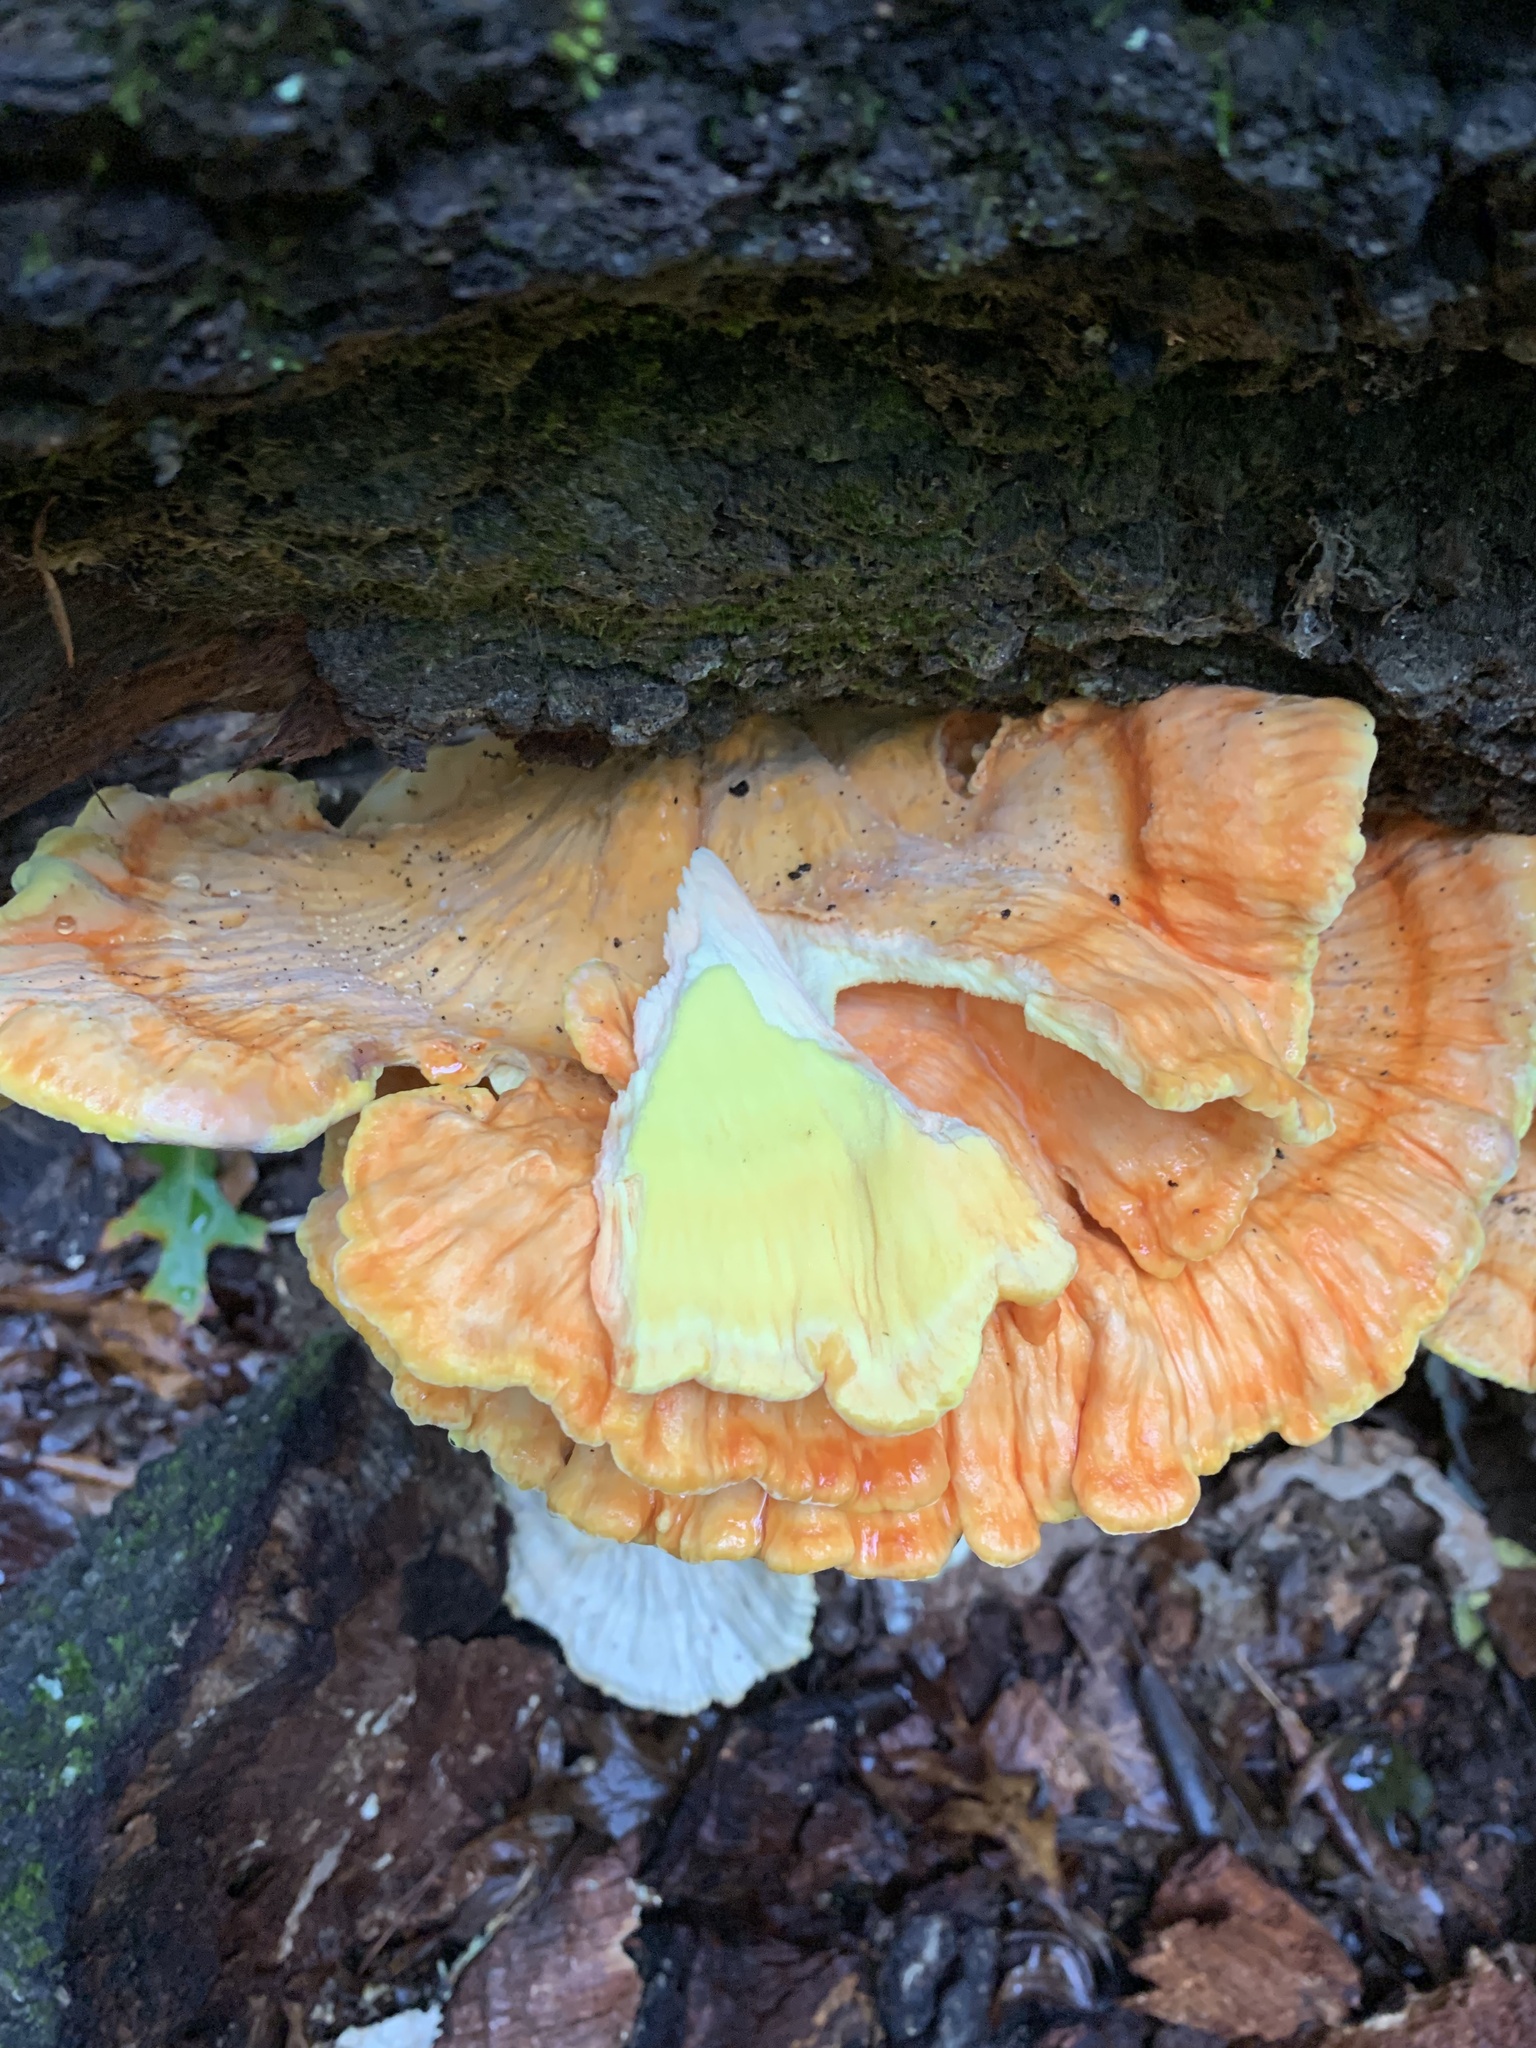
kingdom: Fungi
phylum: Basidiomycota
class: Agaricomycetes
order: Polyporales
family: Laetiporaceae
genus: Laetiporus
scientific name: Laetiporus sulphureus
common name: Chicken of the woods
